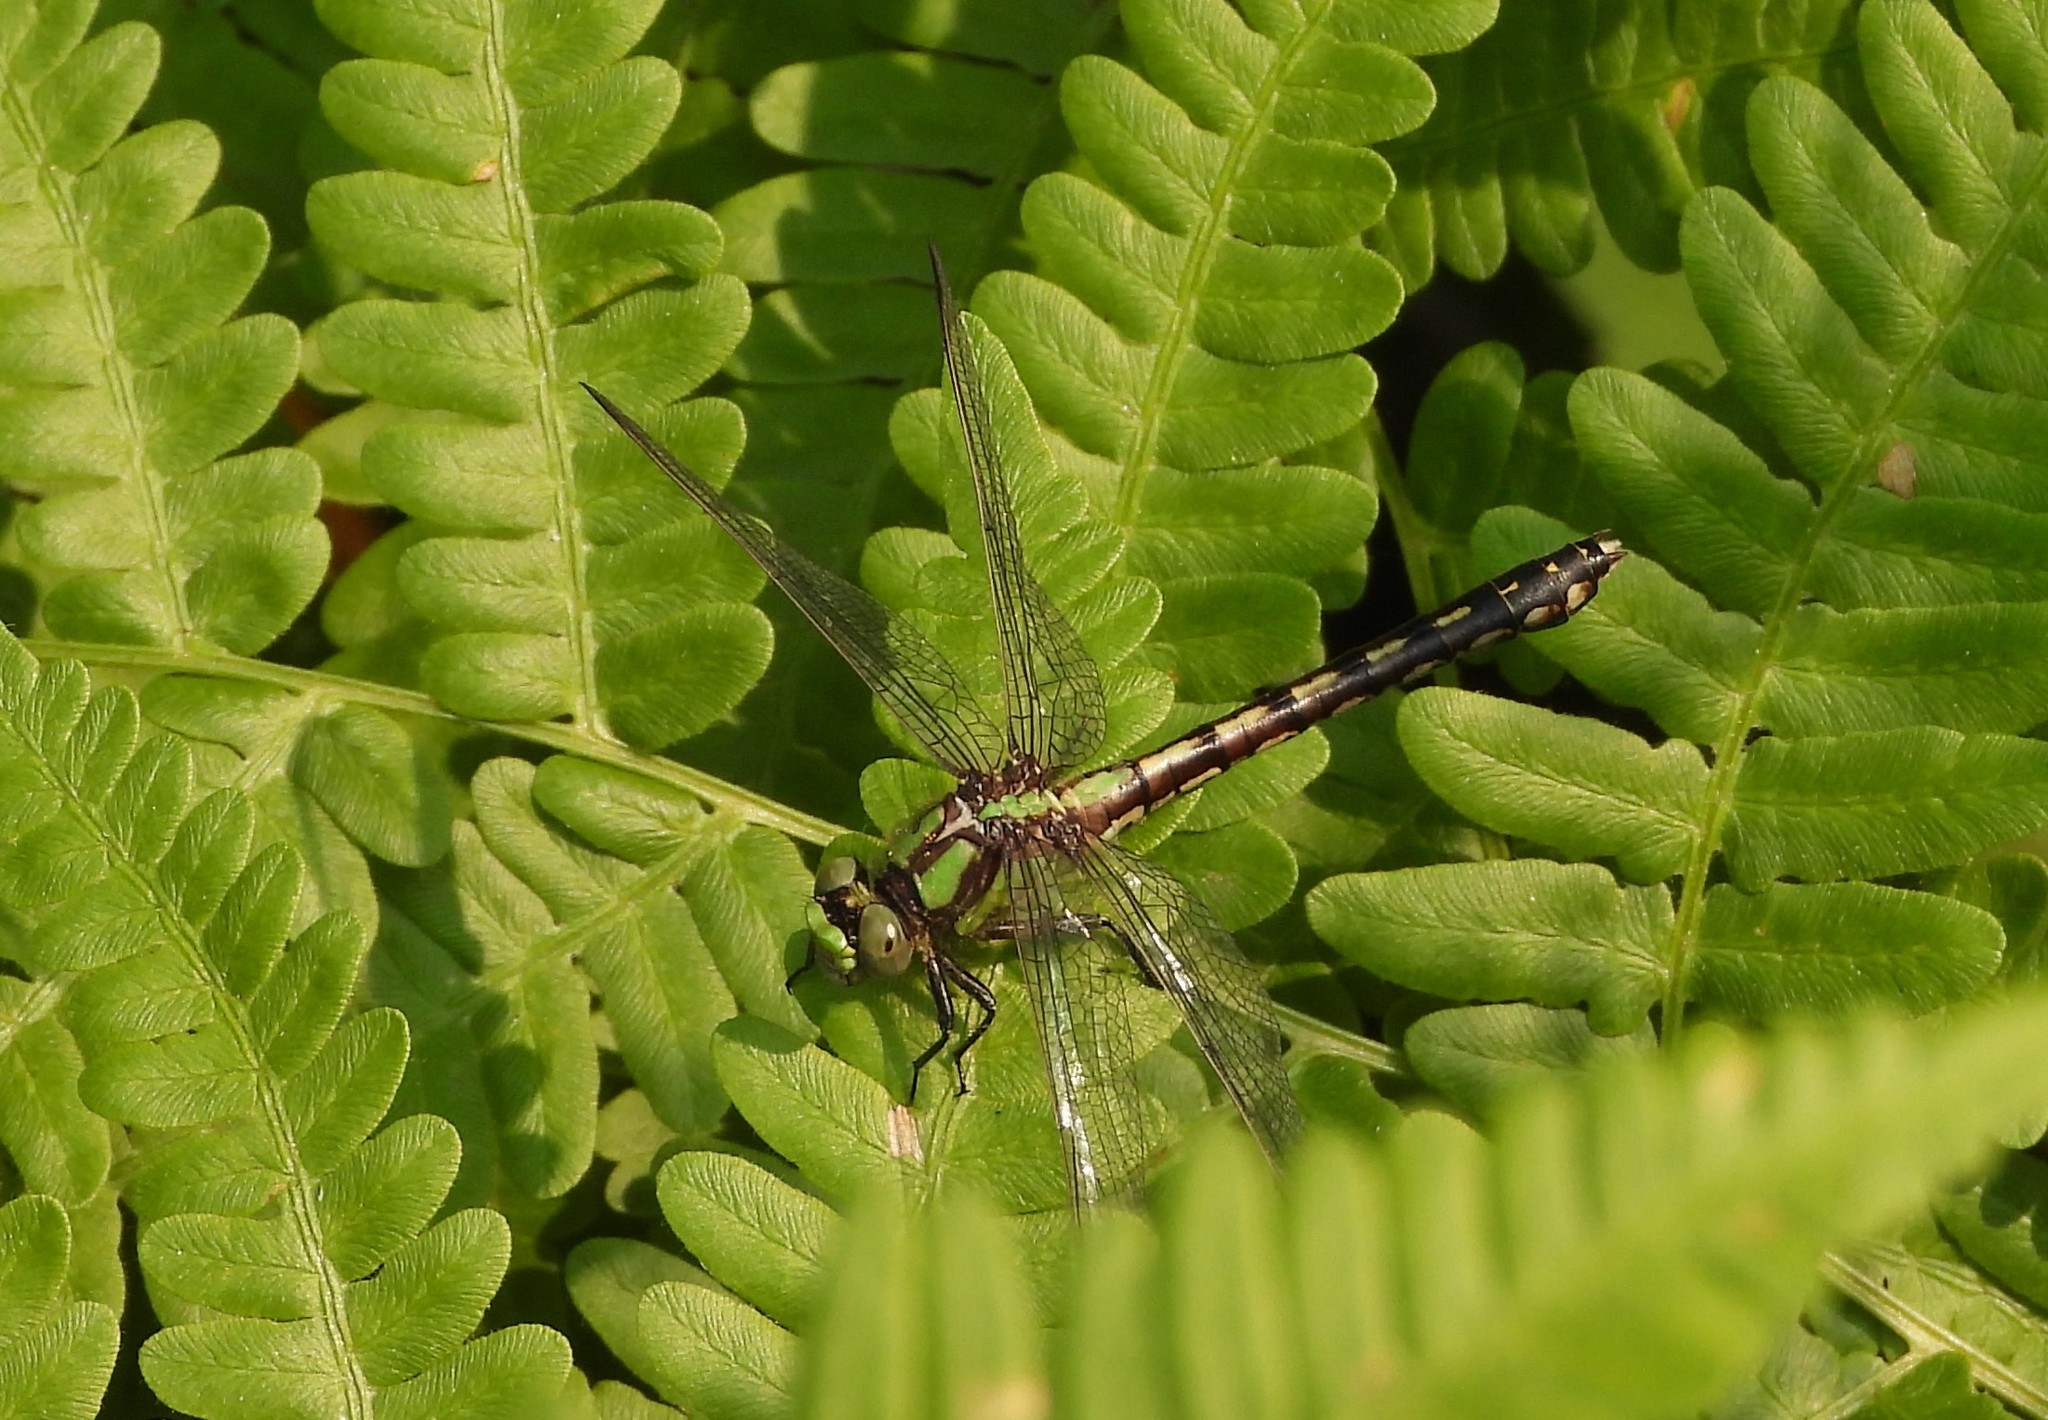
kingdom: Animalia
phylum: Arthropoda
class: Insecta
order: Odonata
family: Gomphidae
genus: Ophiogomphus
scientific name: Ophiogomphus carolus
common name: Riffle snaketail
